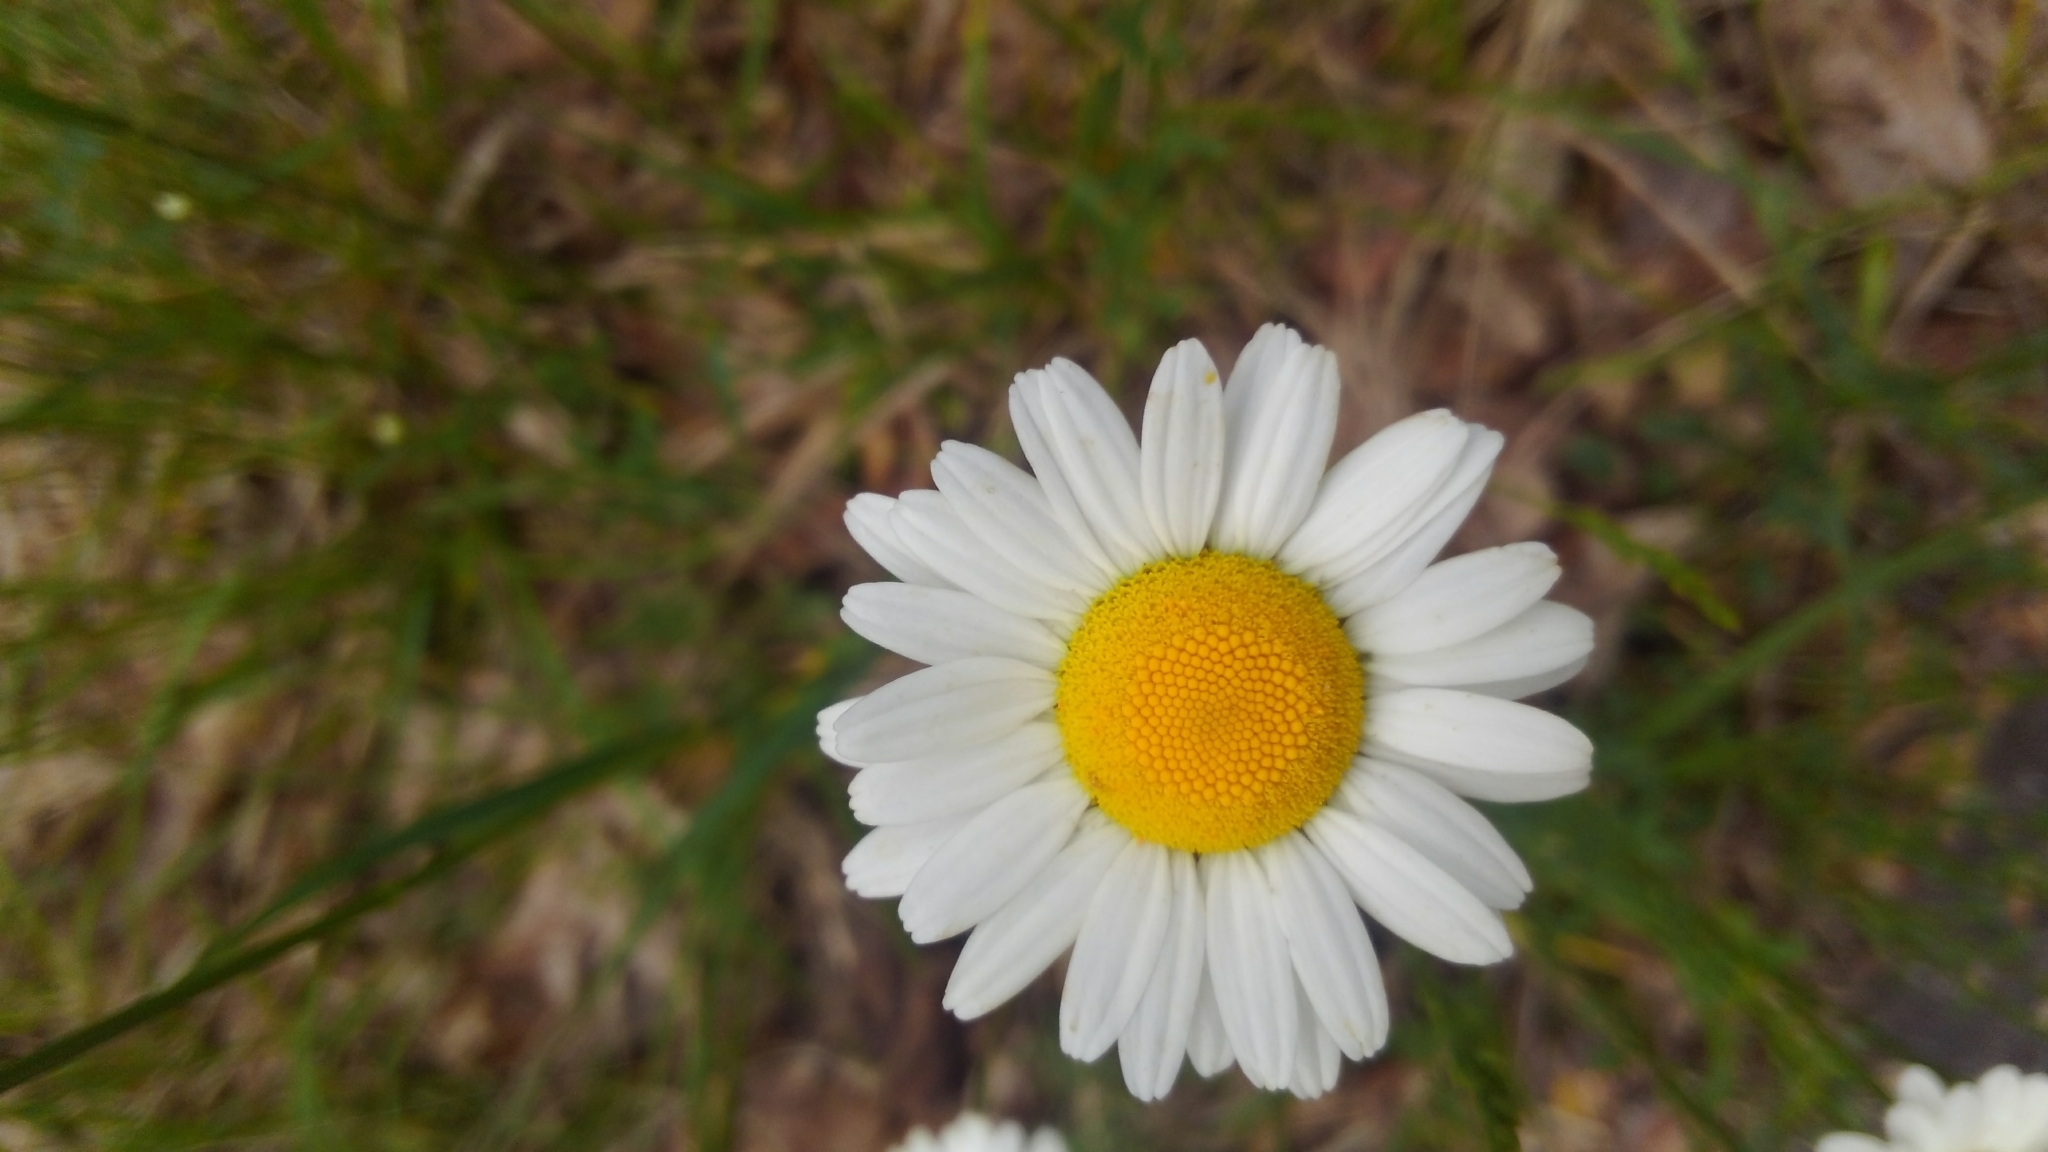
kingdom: Plantae
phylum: Tracheophyta
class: Magnoliopsida
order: Asterales
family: Asteraceae
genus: Leucanthemum
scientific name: Leucanthemum vulgare
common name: Oxeye daisy
